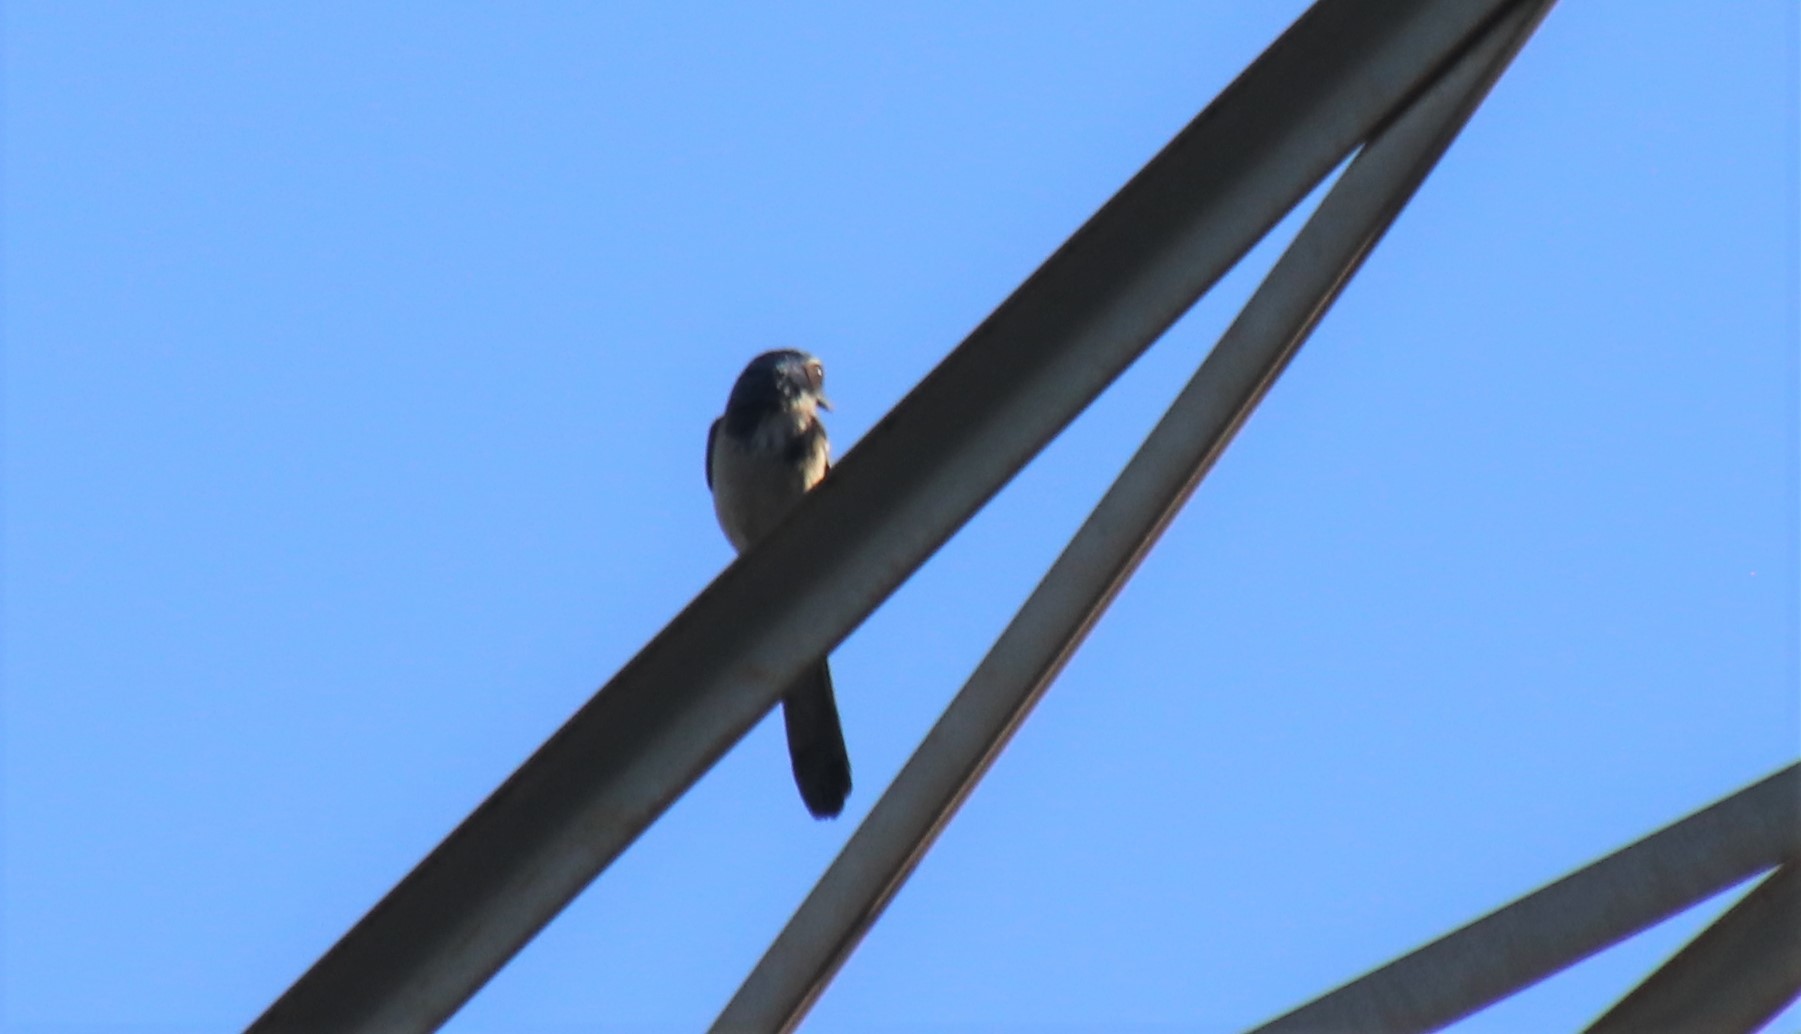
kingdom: Animalia
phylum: Chordata
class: Aves
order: Passeriformes
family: Corvidae
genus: Aphelocoma
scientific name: Aphelocoma californica
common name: California scrub-jay
